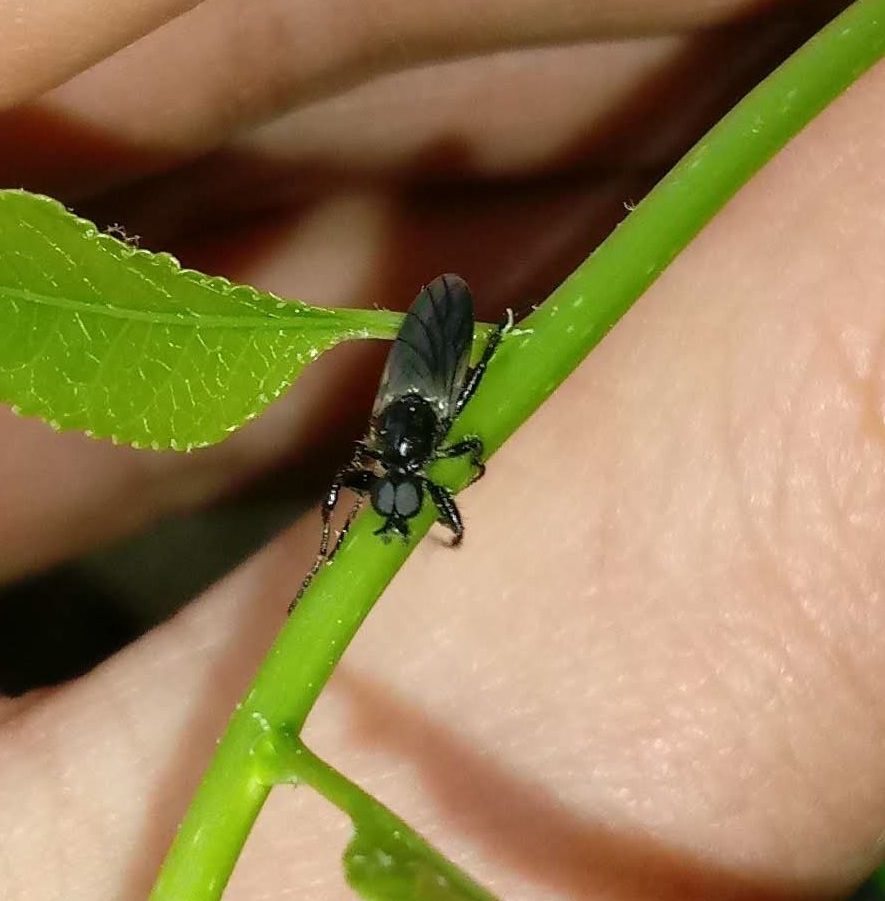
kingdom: Animalia
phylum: Arthropoda
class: Insecta
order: Diptera
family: Bibionidae
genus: Bibio
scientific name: Bibio albipennis
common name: White-winged march fly
